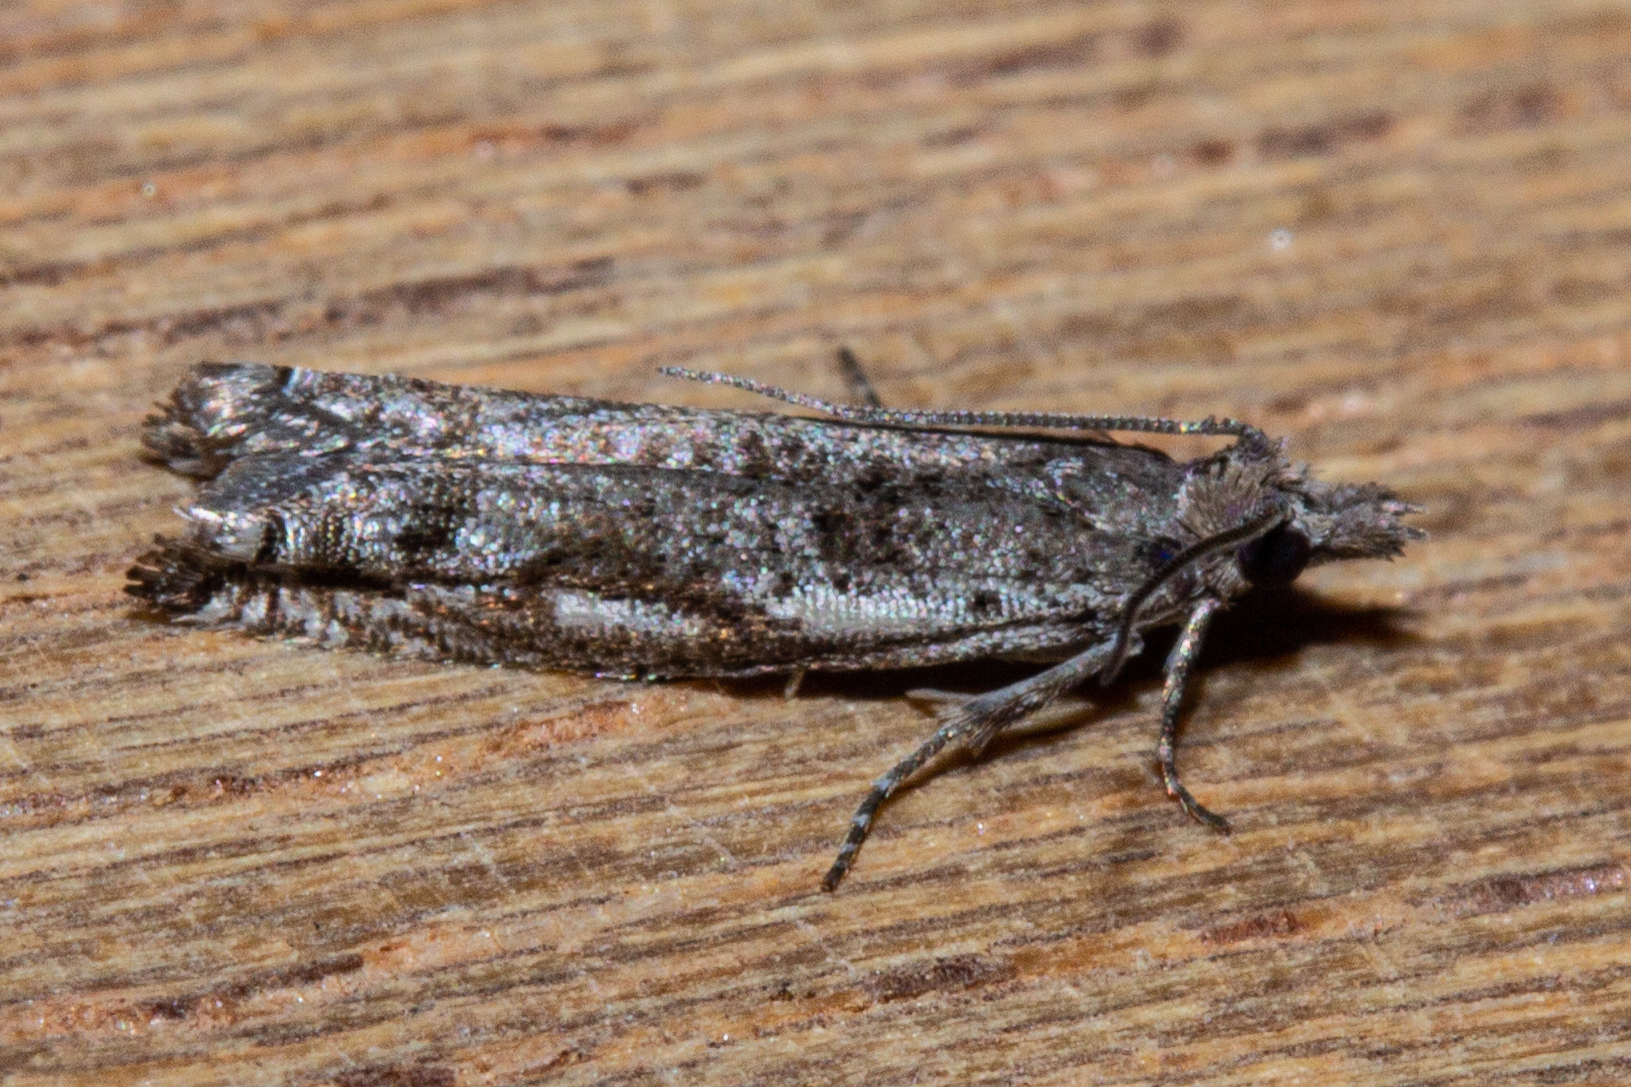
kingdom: Animalia
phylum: Arthropoda
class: Insecta
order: Lepidoptera
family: Tortricidae
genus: Holocola
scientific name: Holocola zopherana
